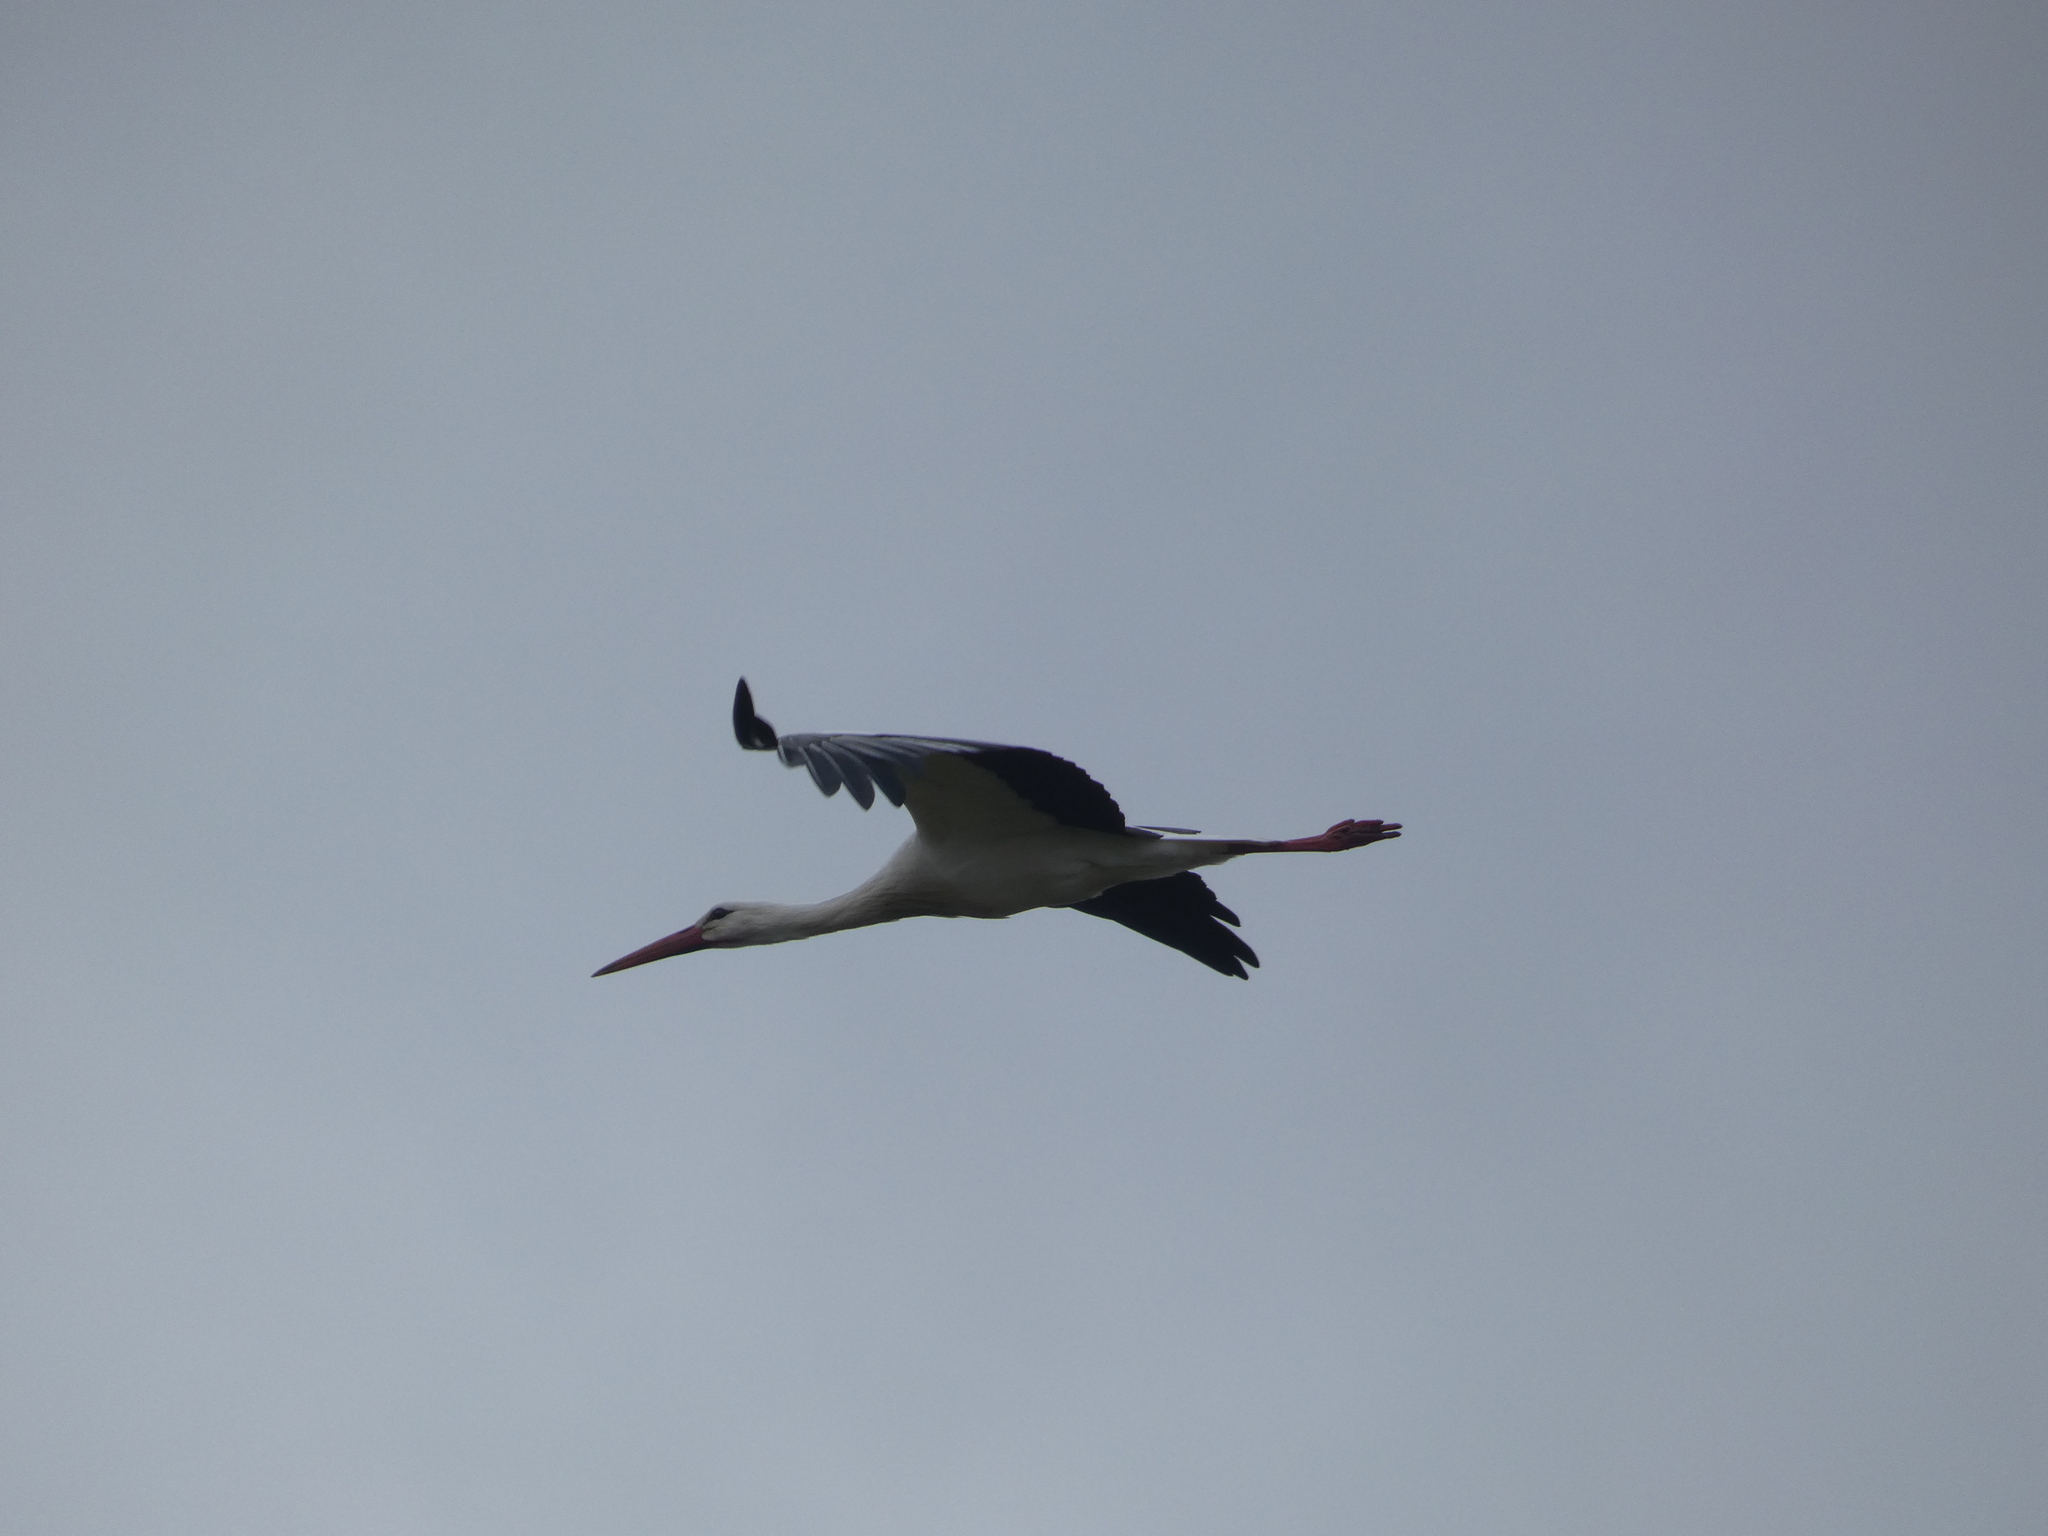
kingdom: Animalia
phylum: Chordata
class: Aves
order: Ciconiiformes
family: Ciconiidae
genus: Ciconia
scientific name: Ciconia ciconia
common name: White stork
